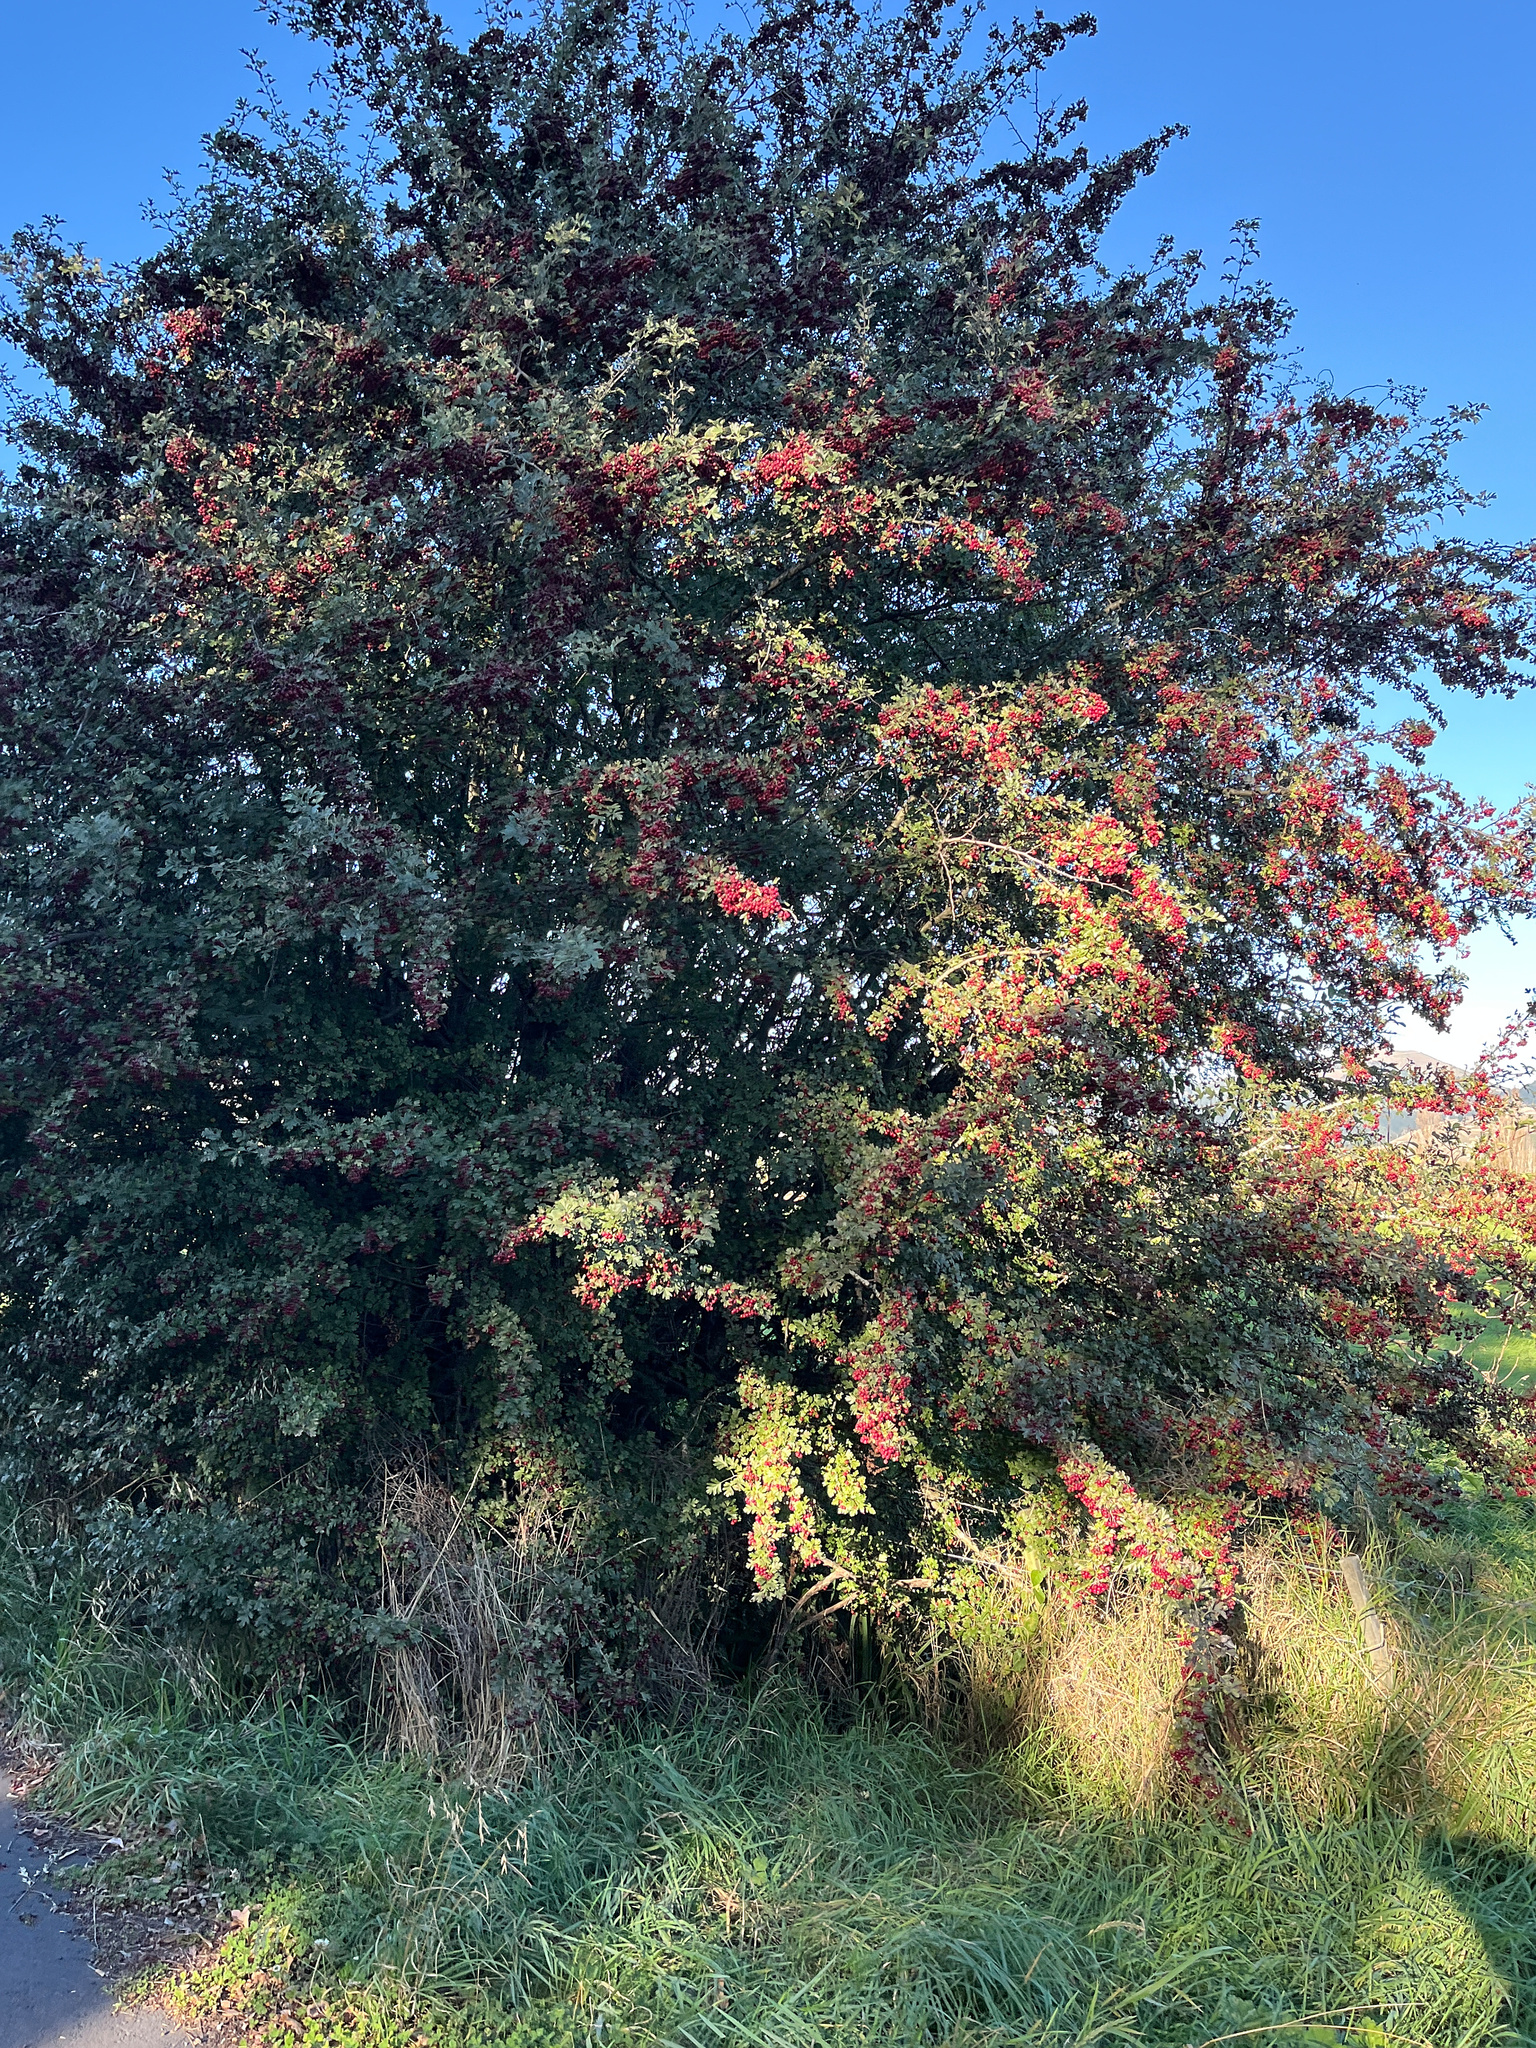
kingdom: Plantae
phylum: Tracheophyta
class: Magnoliopsida
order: Rosales
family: Rosaceae
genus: Crataegus
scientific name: Crataegus monogyna
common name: Hawthorn
